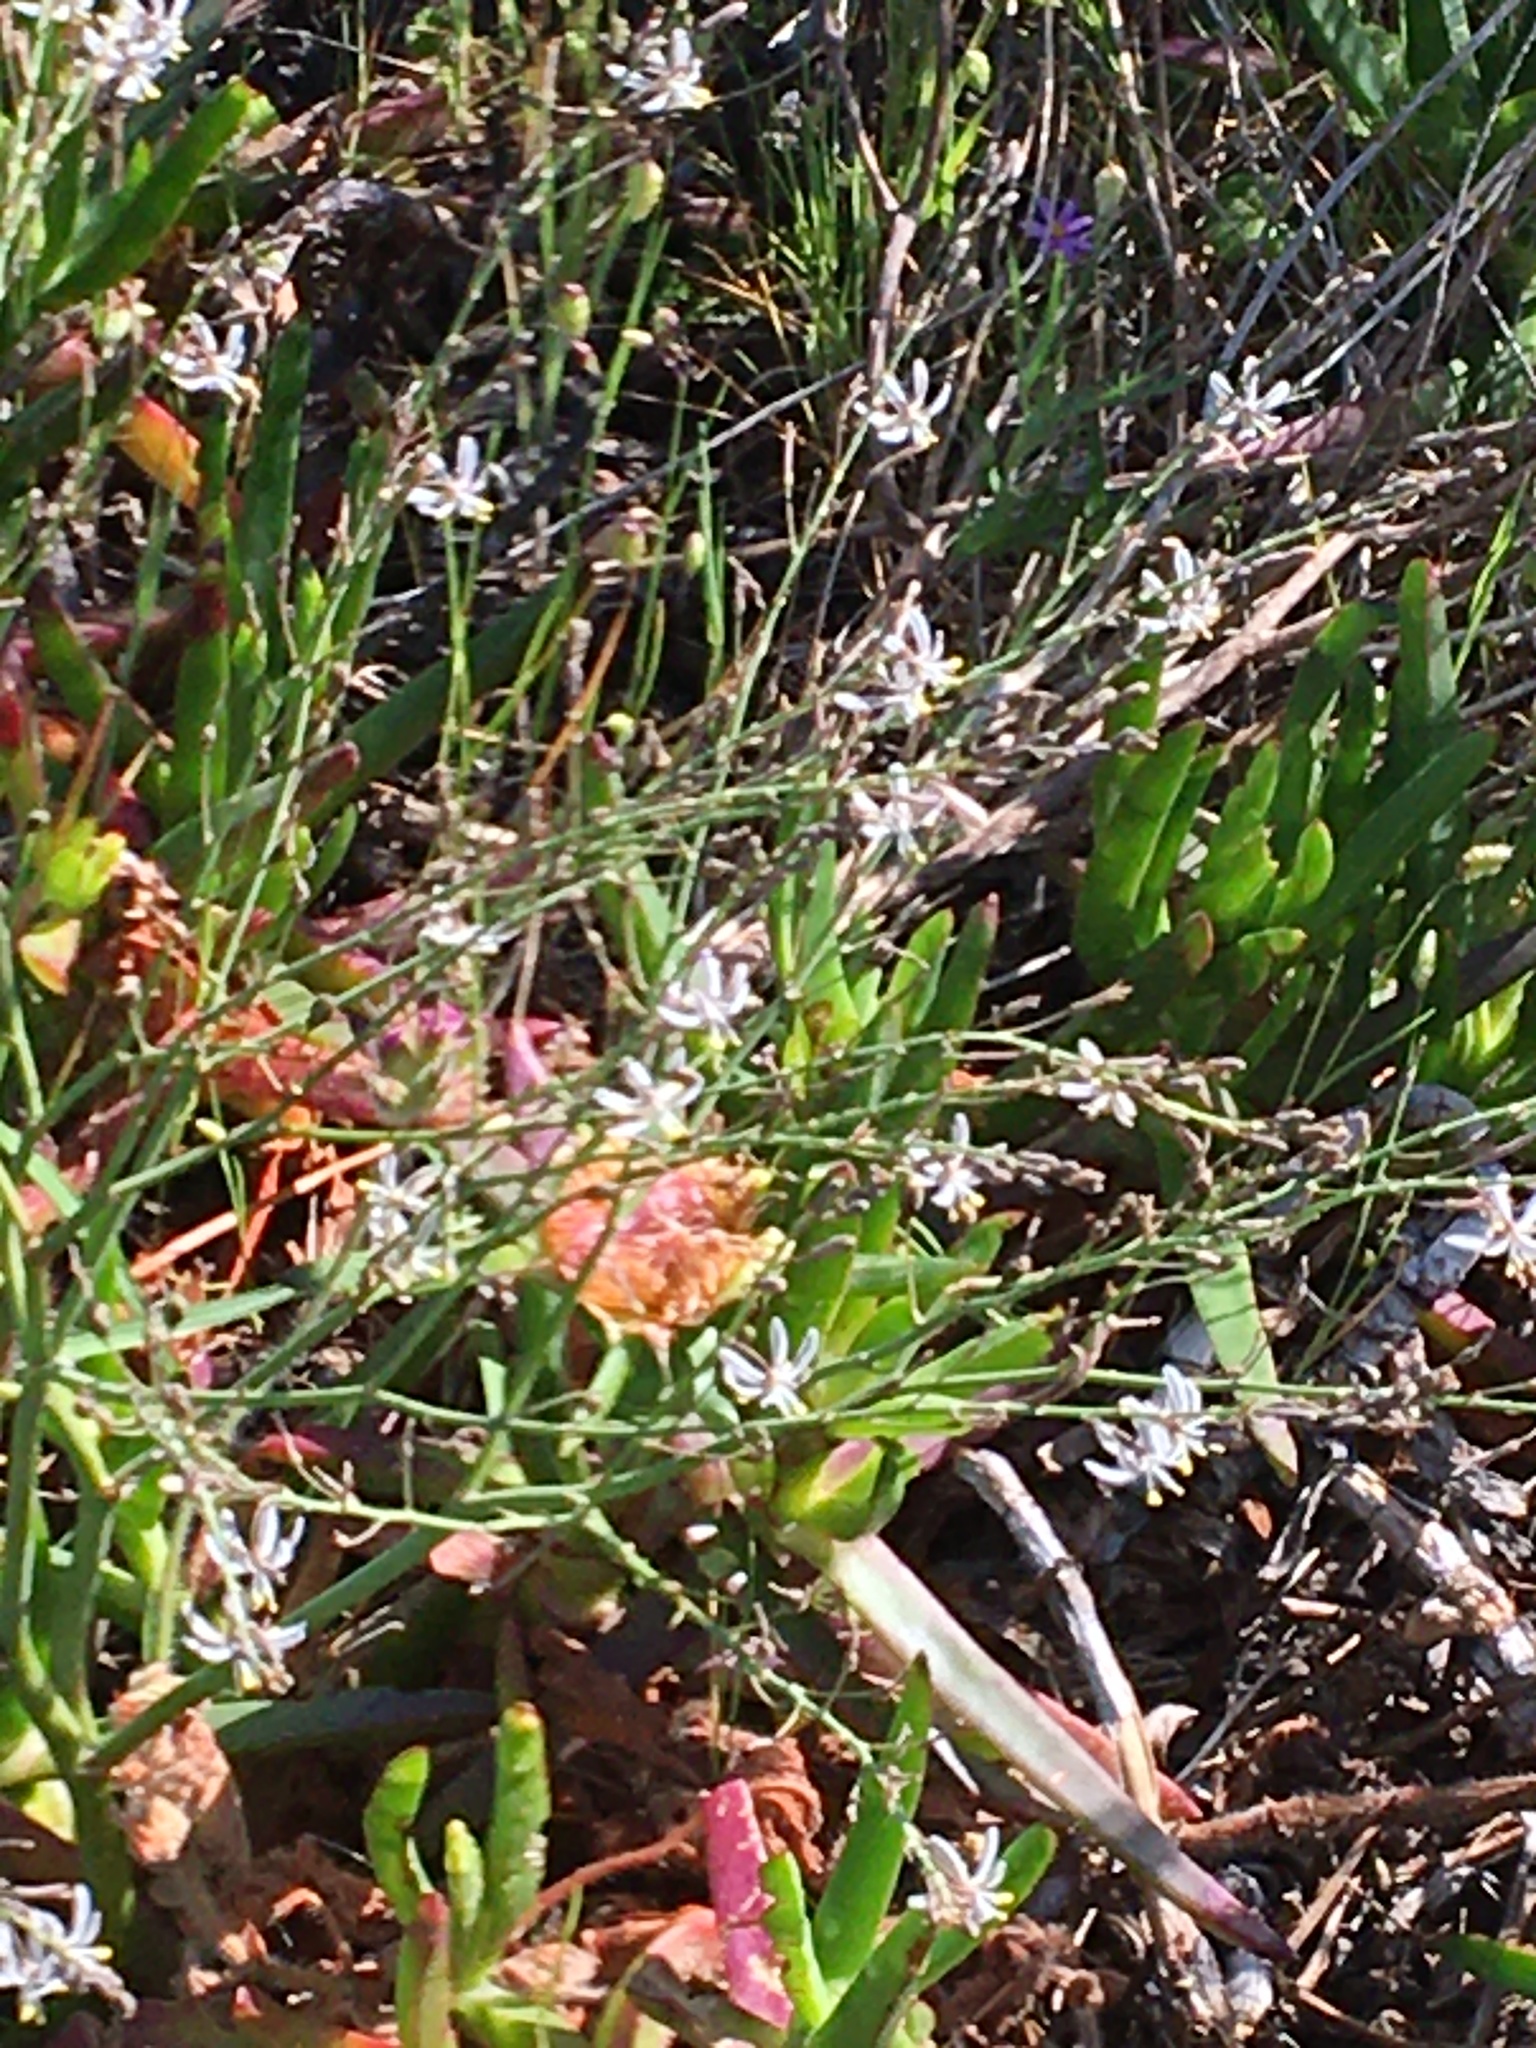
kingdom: Plantae
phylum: Tracheophyta
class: Liliopsida
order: Asparagales
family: Asphodelaceae
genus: Trachyandra
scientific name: Trachyandra divaricata
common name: Dune onionweed
